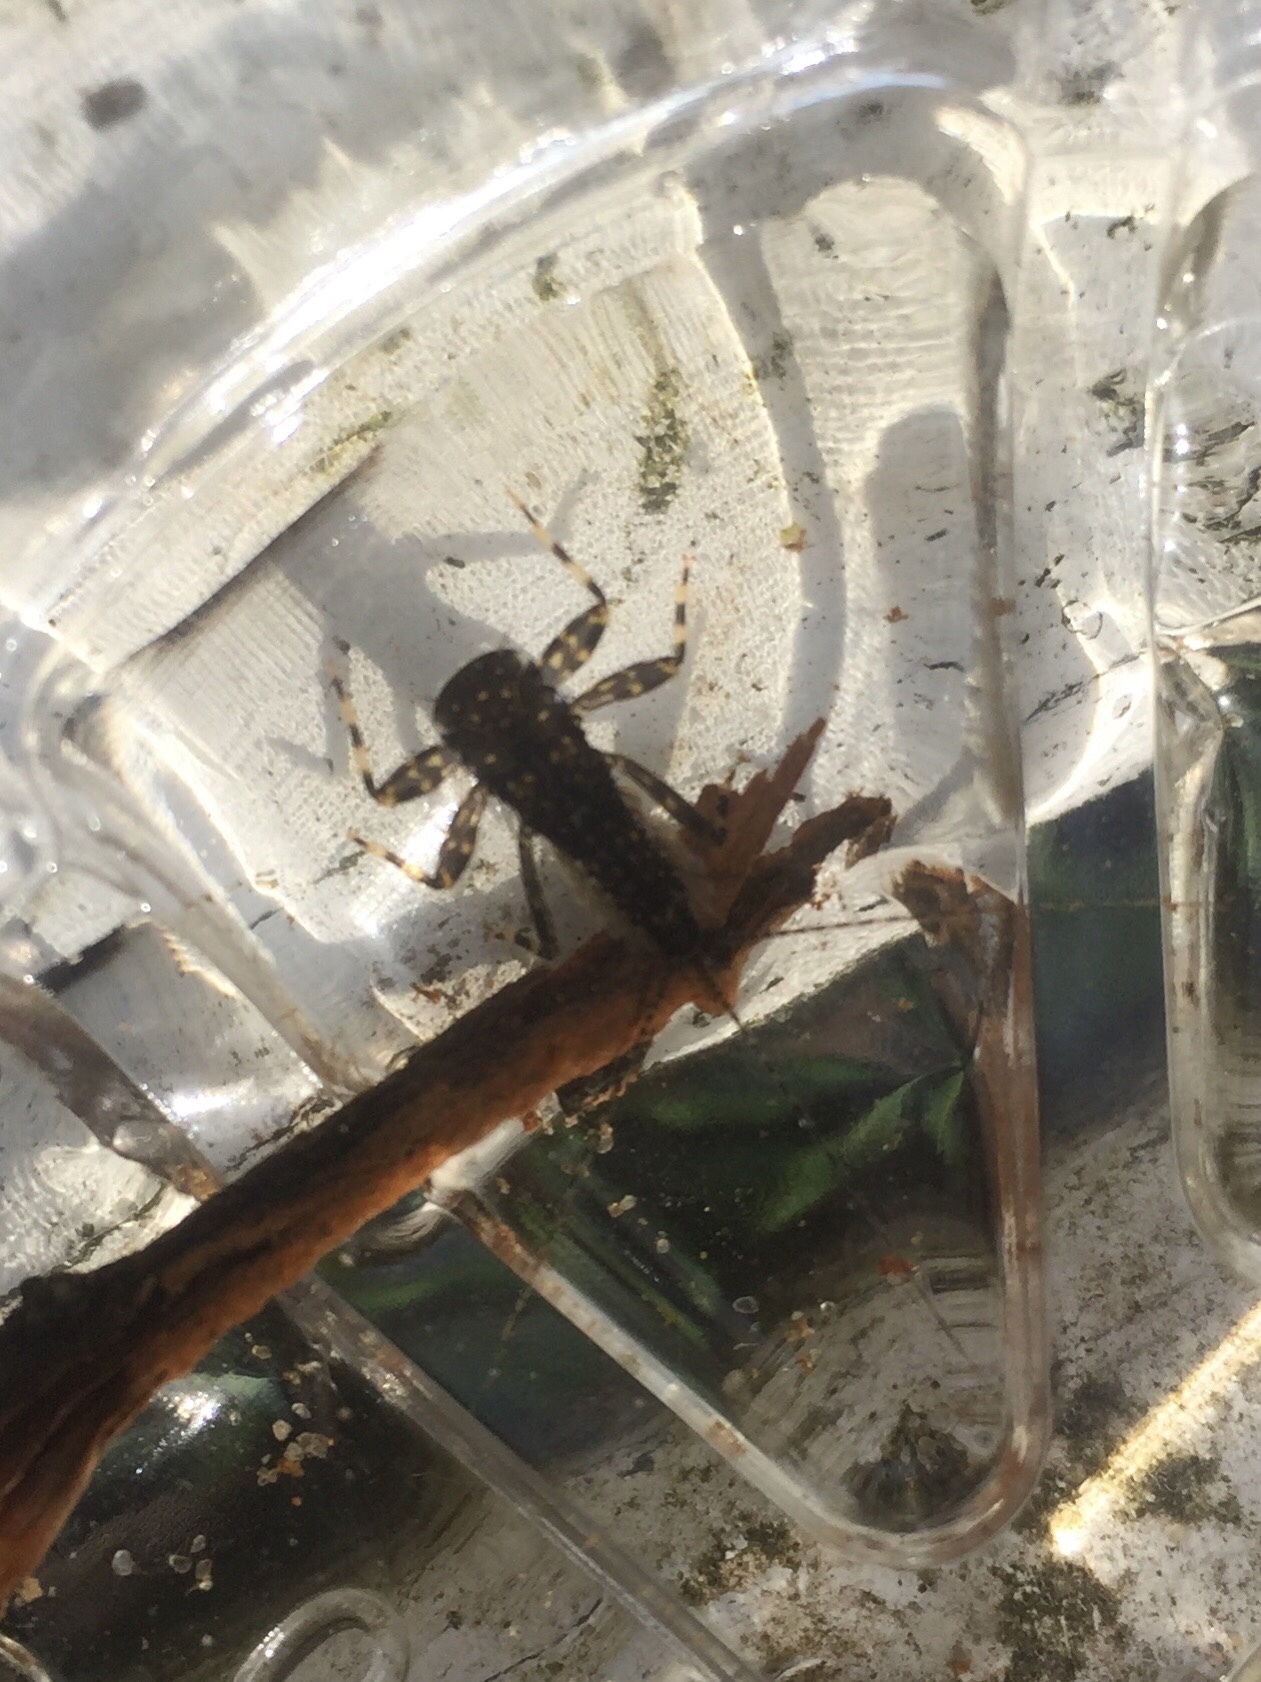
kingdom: Animalia
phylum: Arthropoda
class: Insecta
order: Ephemeroptera
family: Heptageniidae
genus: Heptagenia
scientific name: Heptagenia sulphurea
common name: Yellow may dun
